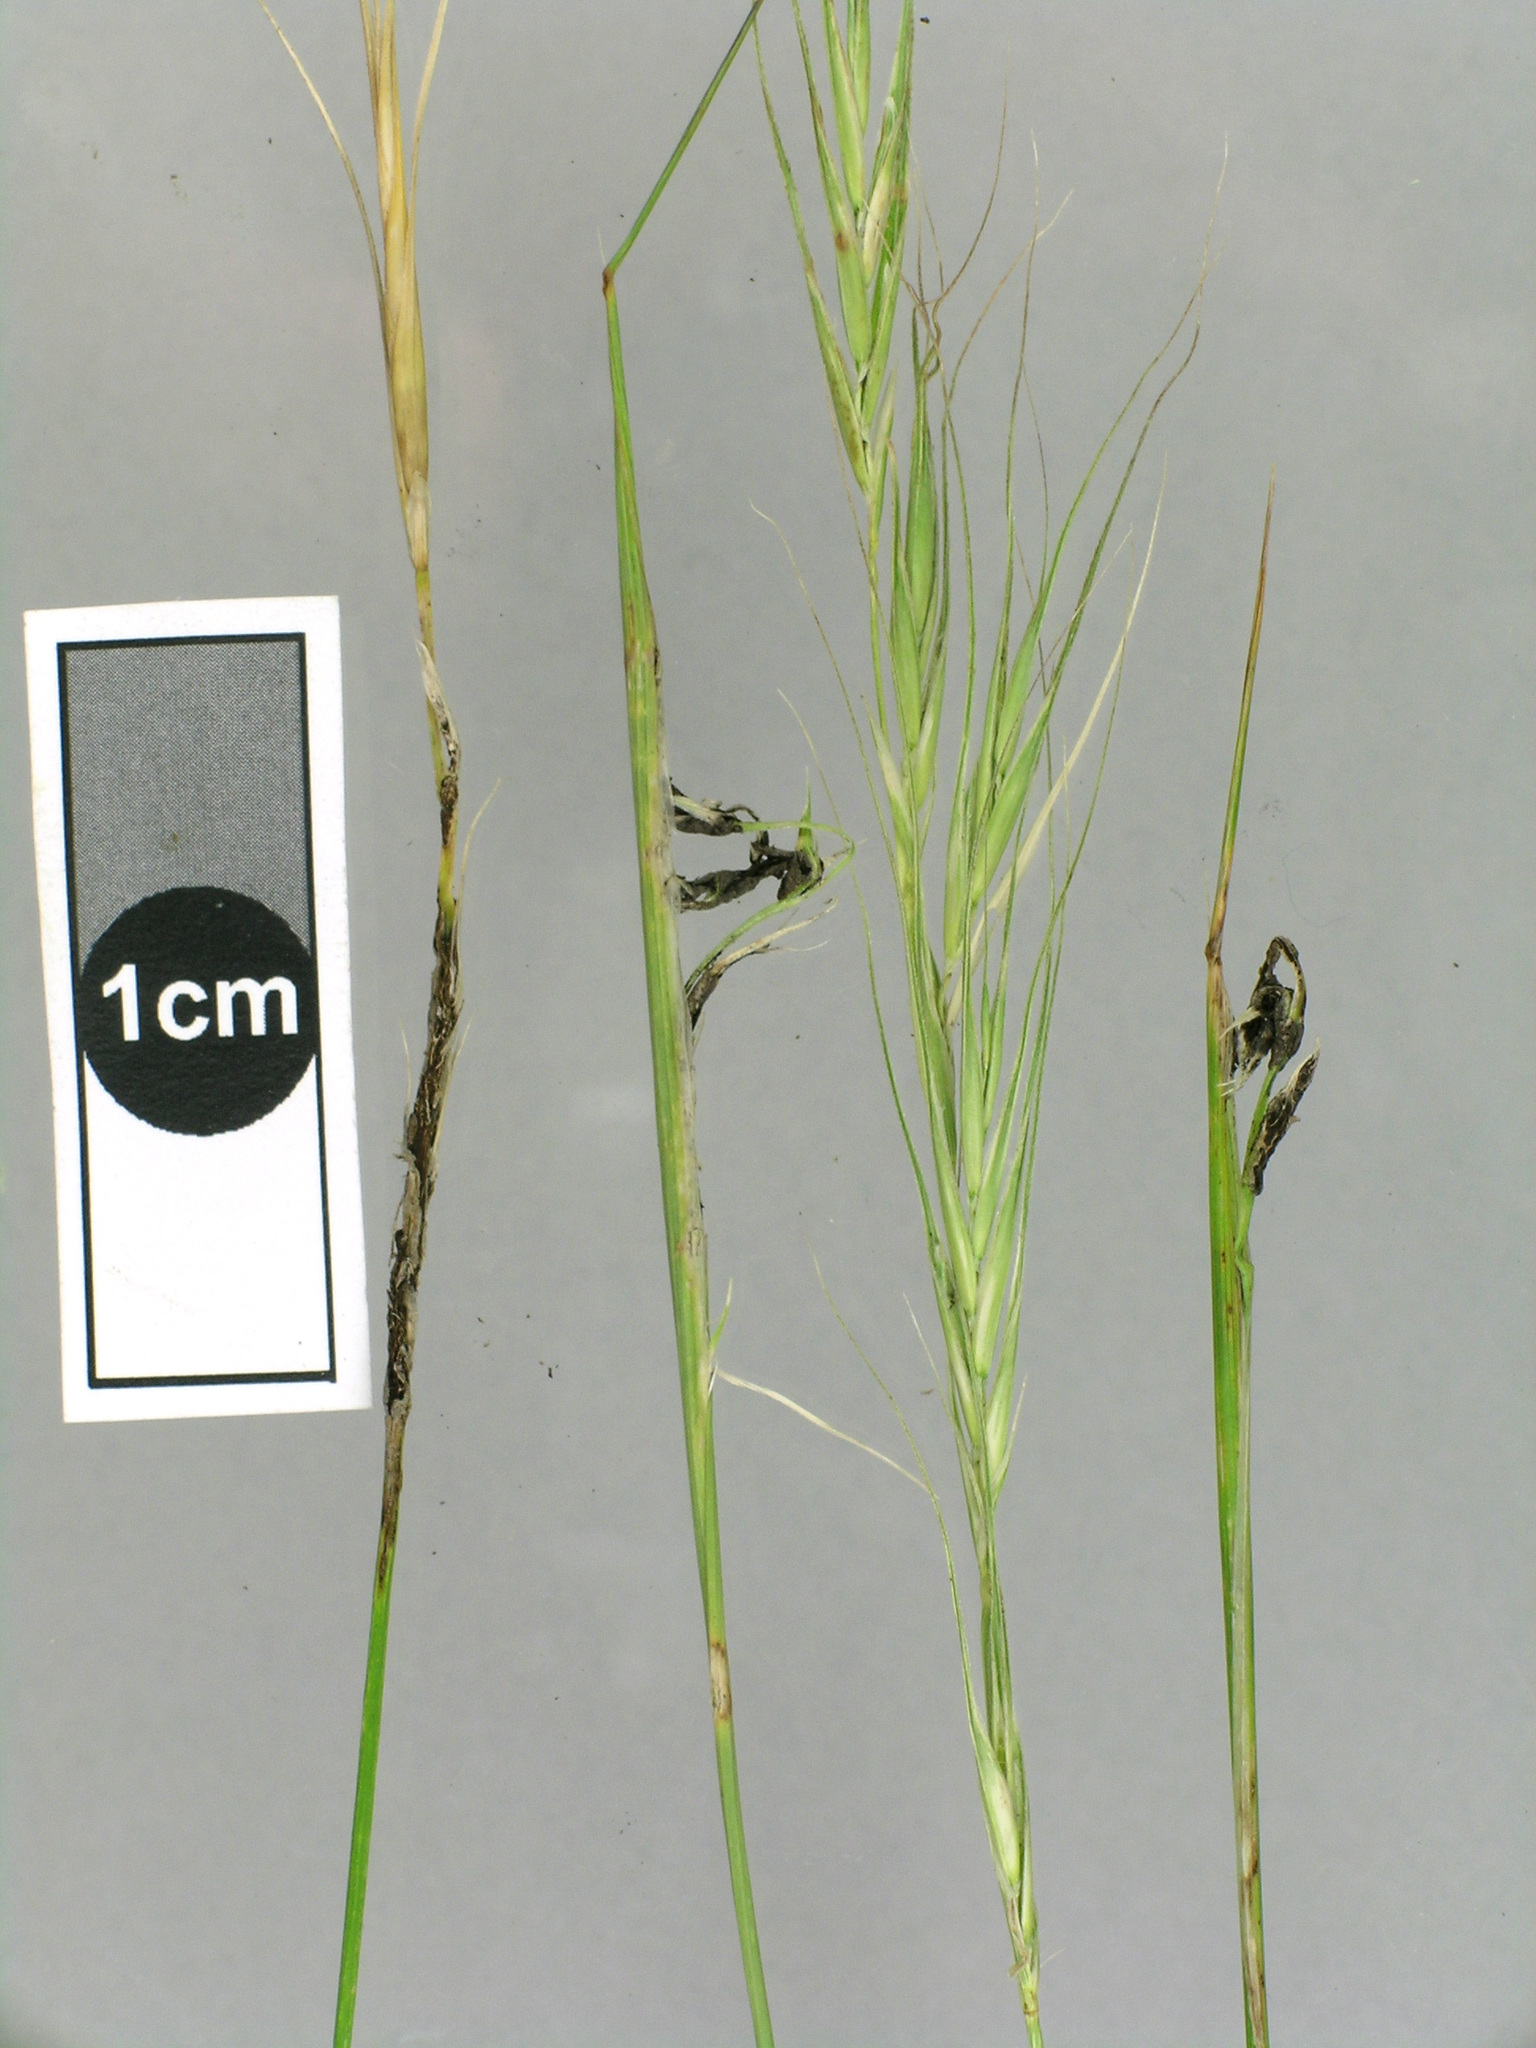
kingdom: Fungi
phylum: Basidiomycota
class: Ustilaginomycetes
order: Ustilaginales
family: Ustilaginaceae
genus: Ustilago
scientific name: Ustilago agropyri
